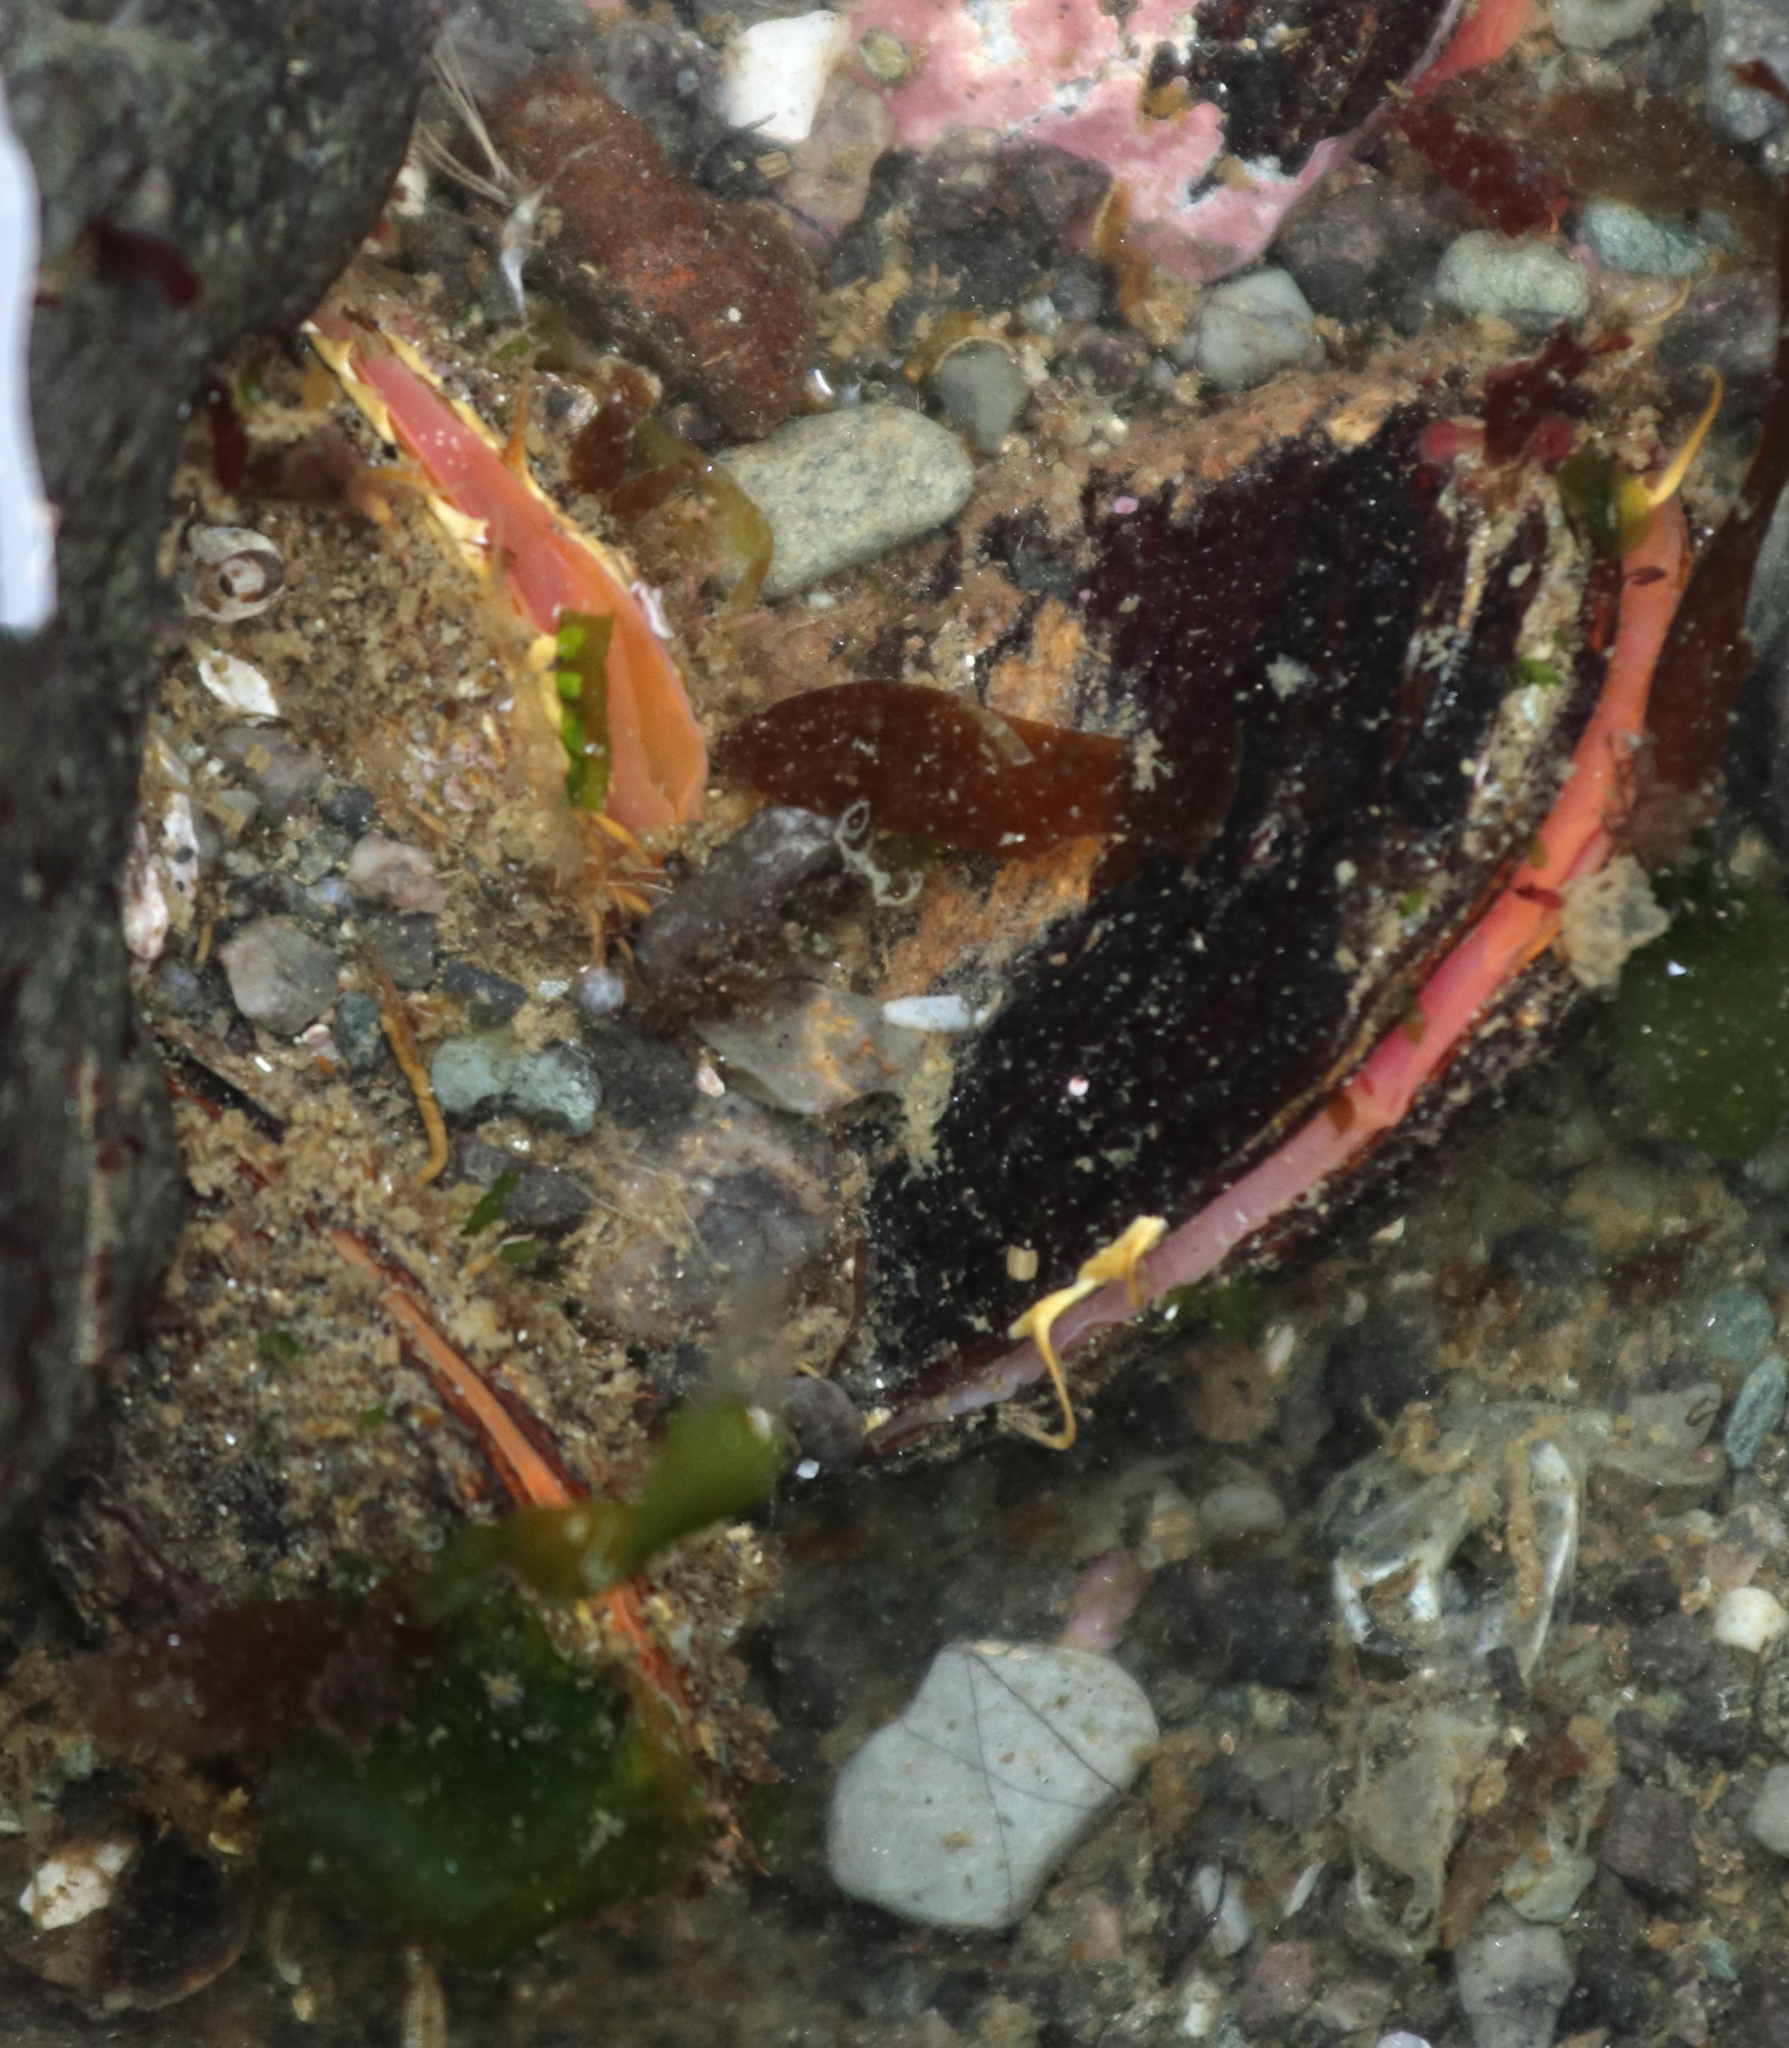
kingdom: Animalia
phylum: Mollusca
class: Bivalvia
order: Mytilida
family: Mytilidae
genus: Modiolus
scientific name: Modiolus modiolus
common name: Horse-mussel
